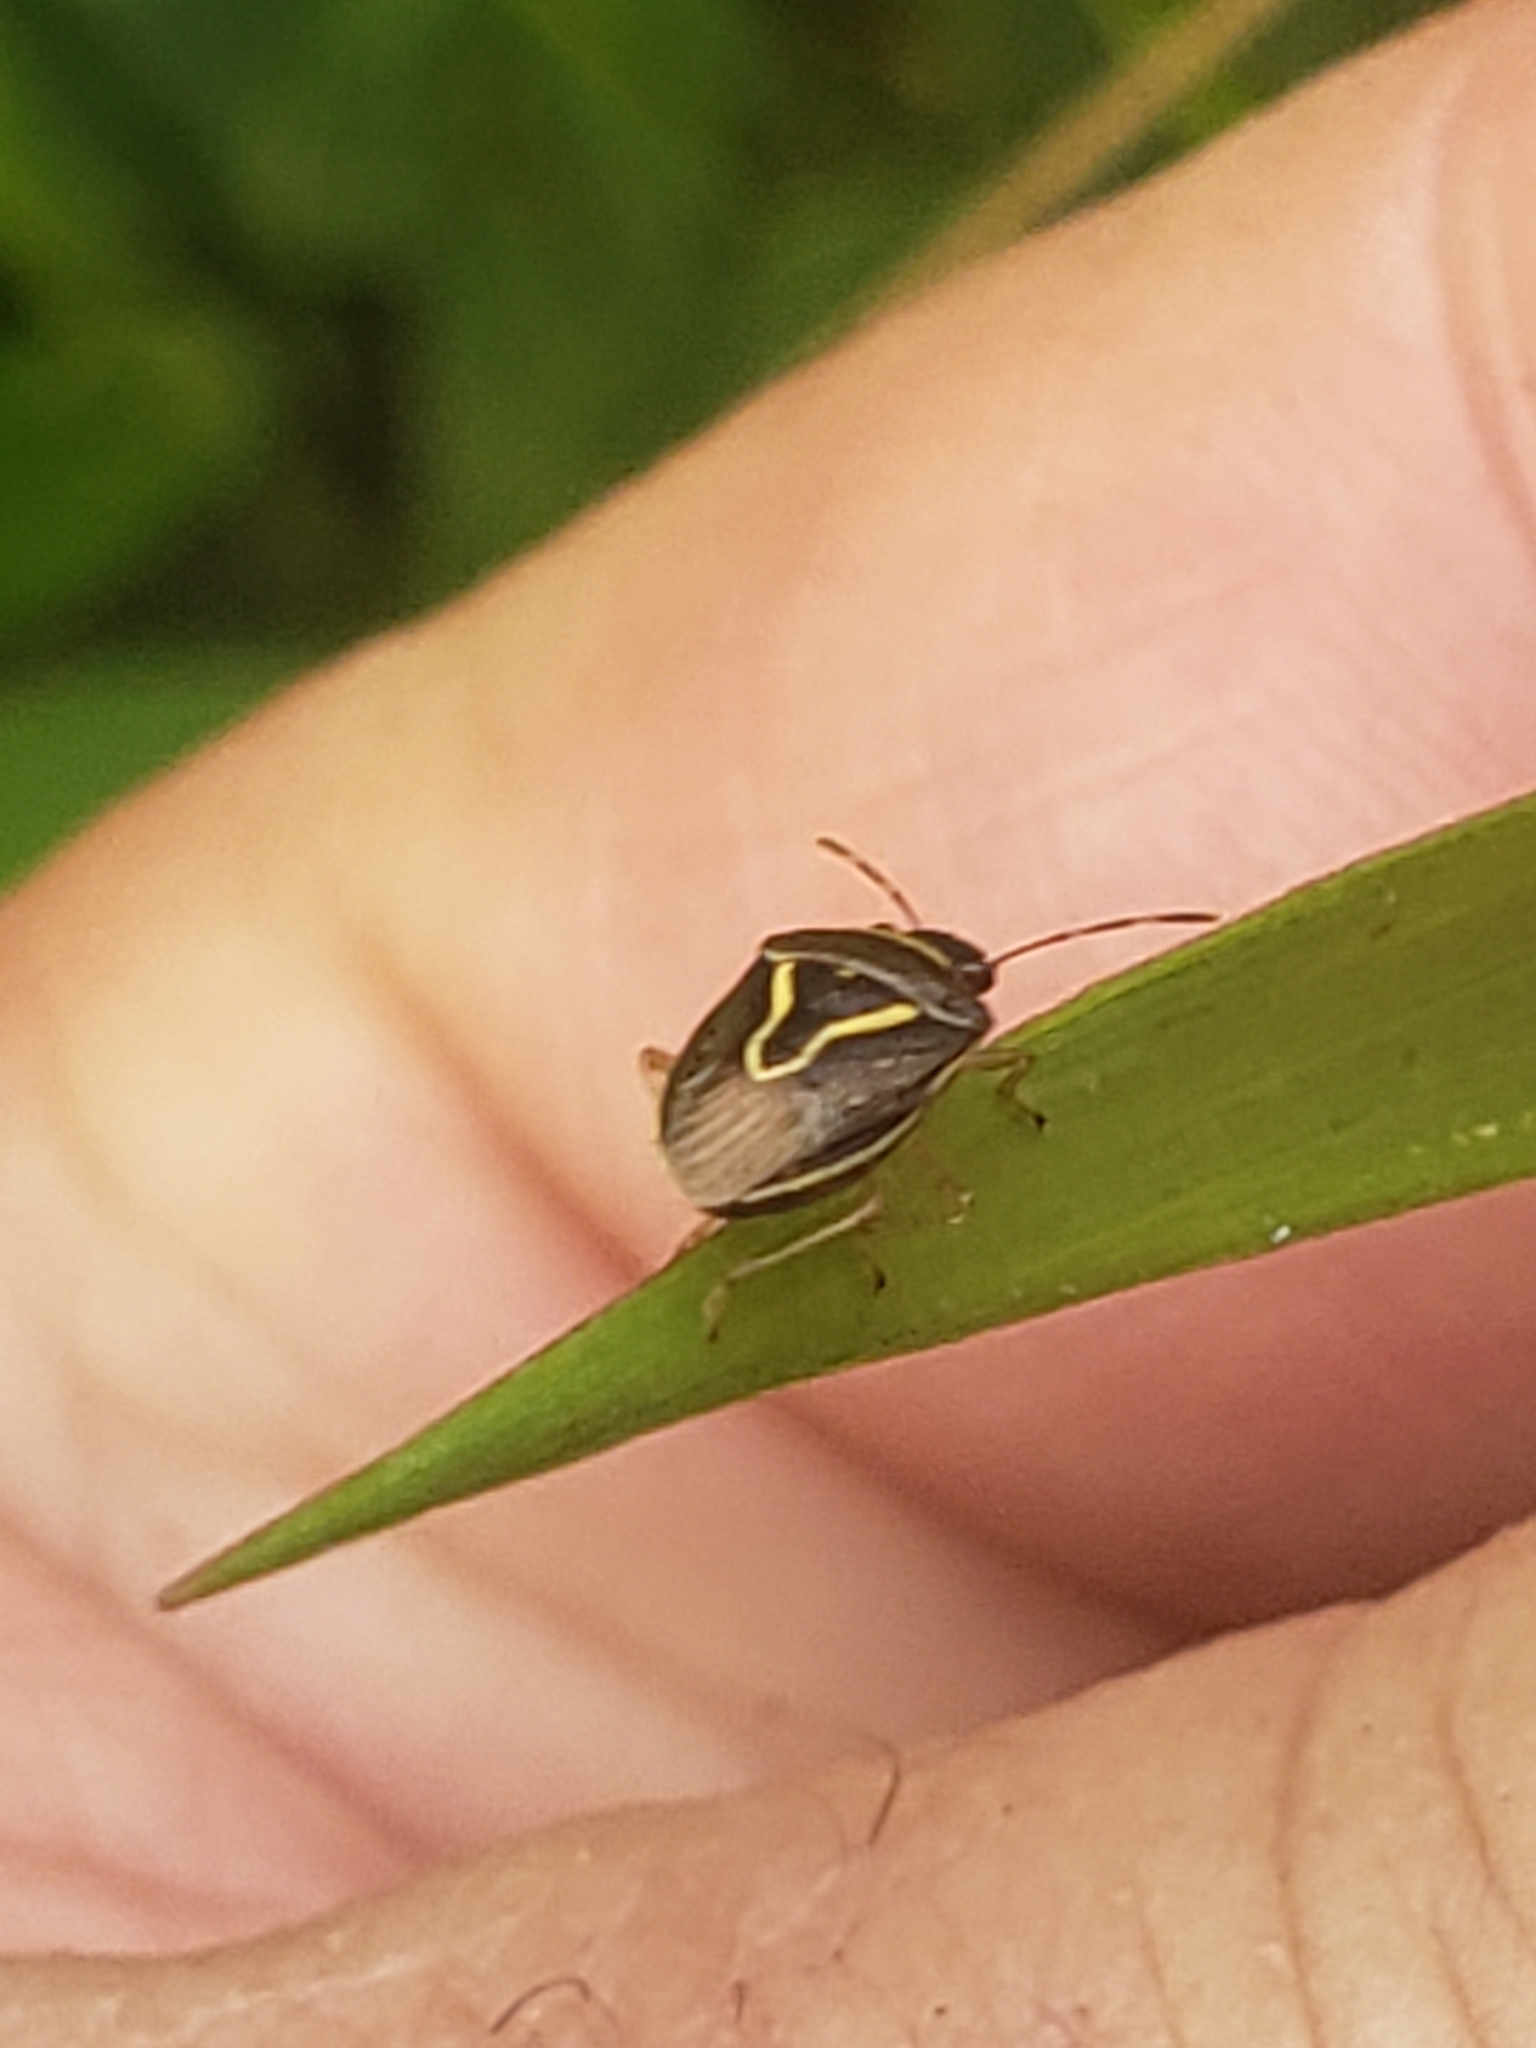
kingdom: Animalia
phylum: Arthropoda
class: Insecta
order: Hemiptera
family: Pentatomidae
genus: Mormidea
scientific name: Mormidea lugens
